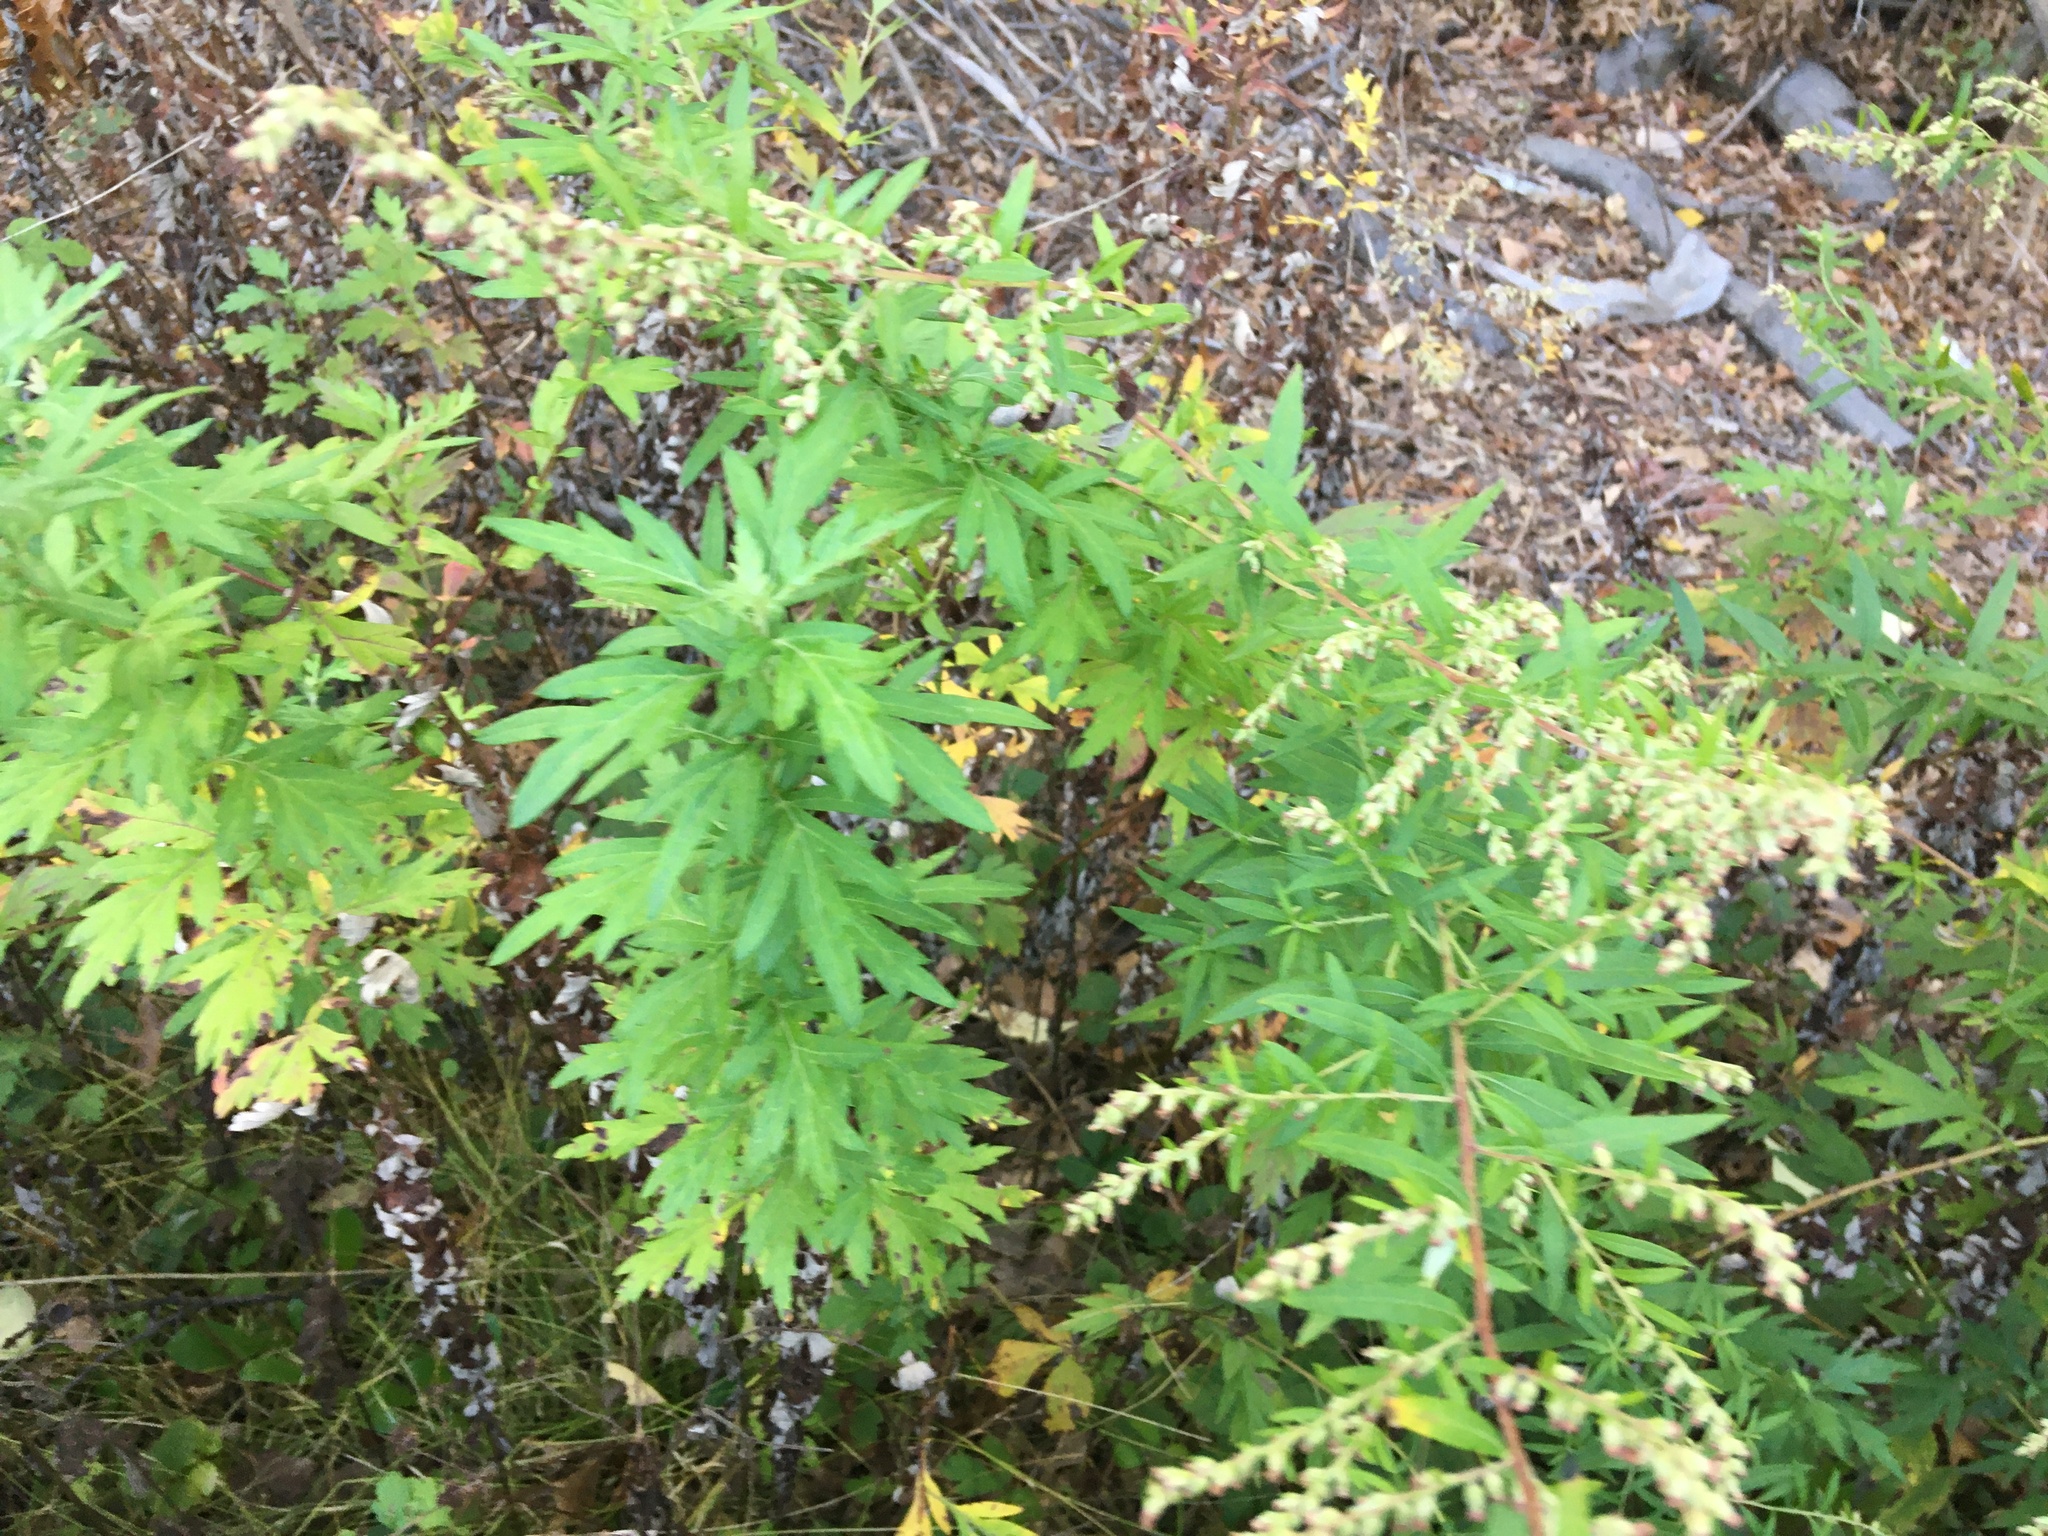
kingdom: Plantae
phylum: Tracheophyta
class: Magnoliopsida
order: Asterales
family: Asteraceae
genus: Artemisia
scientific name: Artemisia vulgaris
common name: Mugwort
